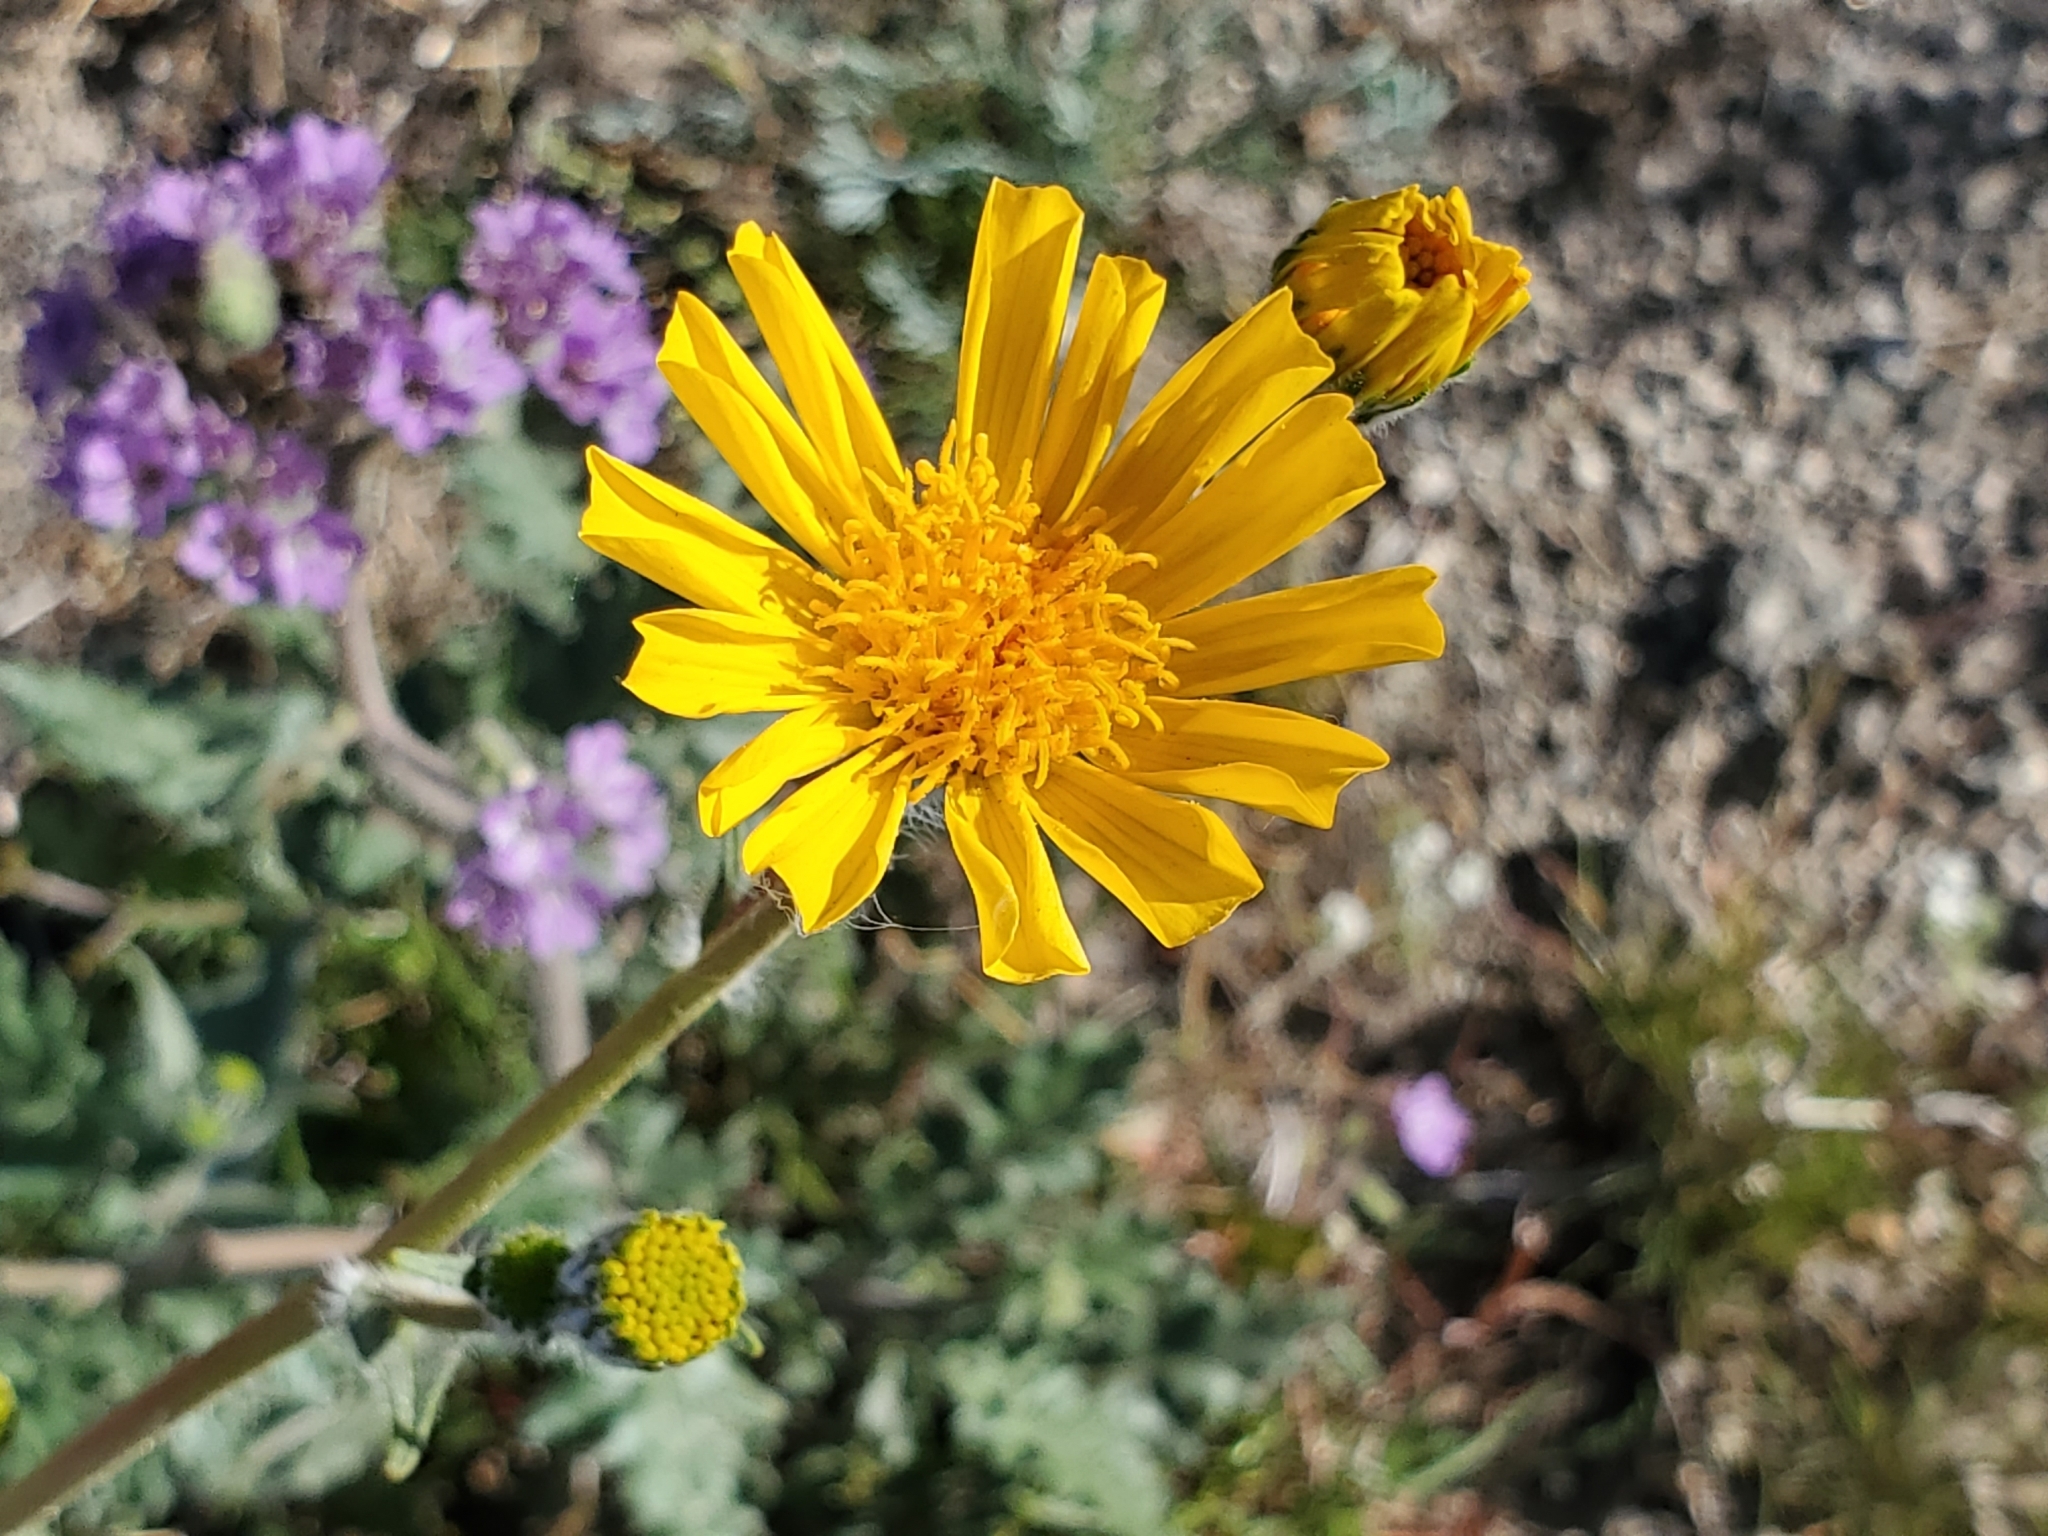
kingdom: Plantae
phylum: Tracheophyta
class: Magnoliopsida
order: Asterales
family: Asteraceae
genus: Geraea
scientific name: Geraea canescens
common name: Desert-gold
